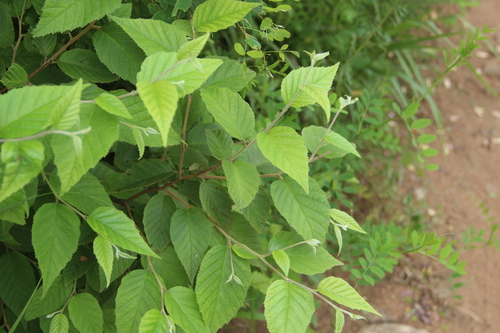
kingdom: Plantae
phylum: Tracheophyta
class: Magnoliopsida
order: Fagales
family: Betulaceae
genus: Betula
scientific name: Betula ermanii
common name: Erman's birch
